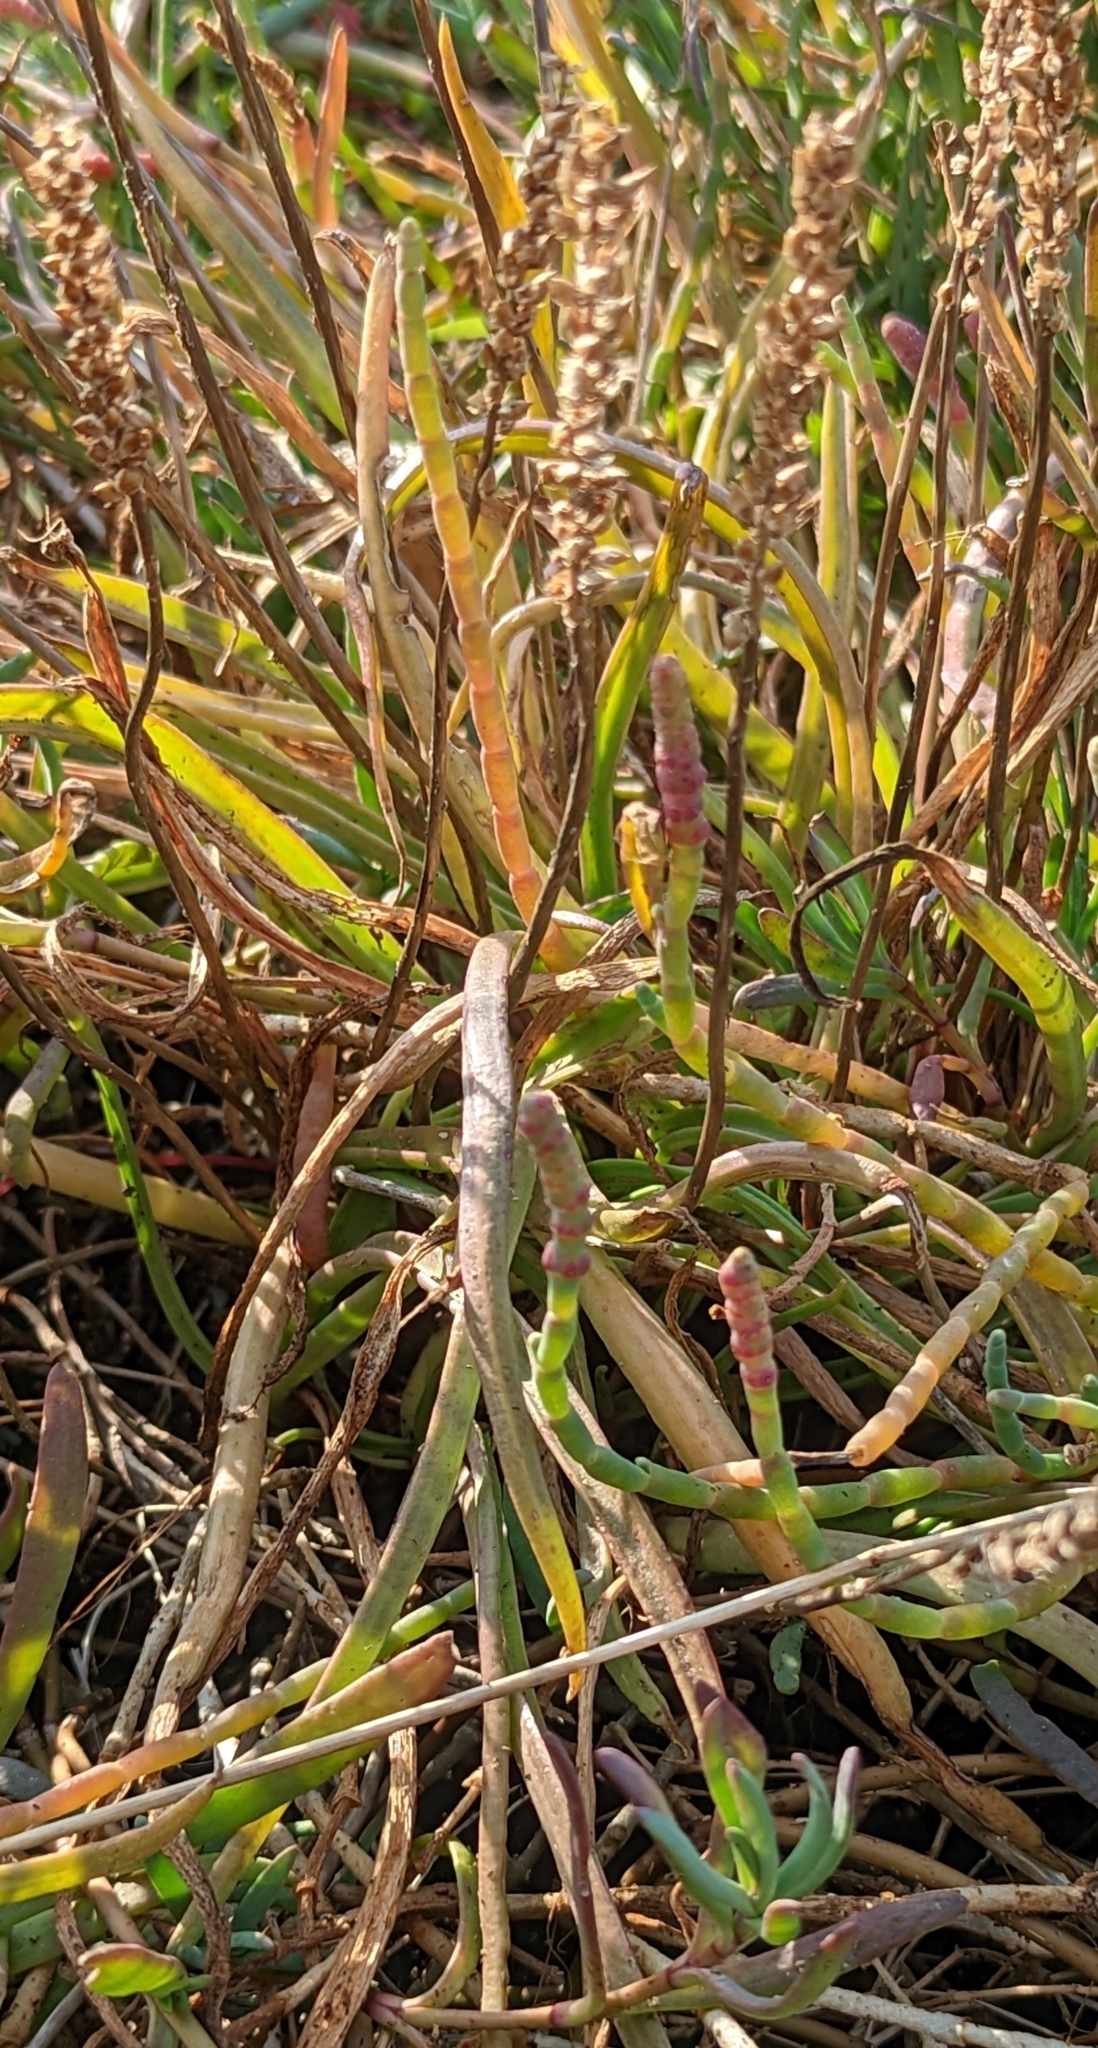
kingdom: Plantae
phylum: Tracheophyta
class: Magnoliopsida
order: Lamiales
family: Plantaginaceae
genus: Plantago
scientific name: Plantago maritima
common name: Sea plantain
